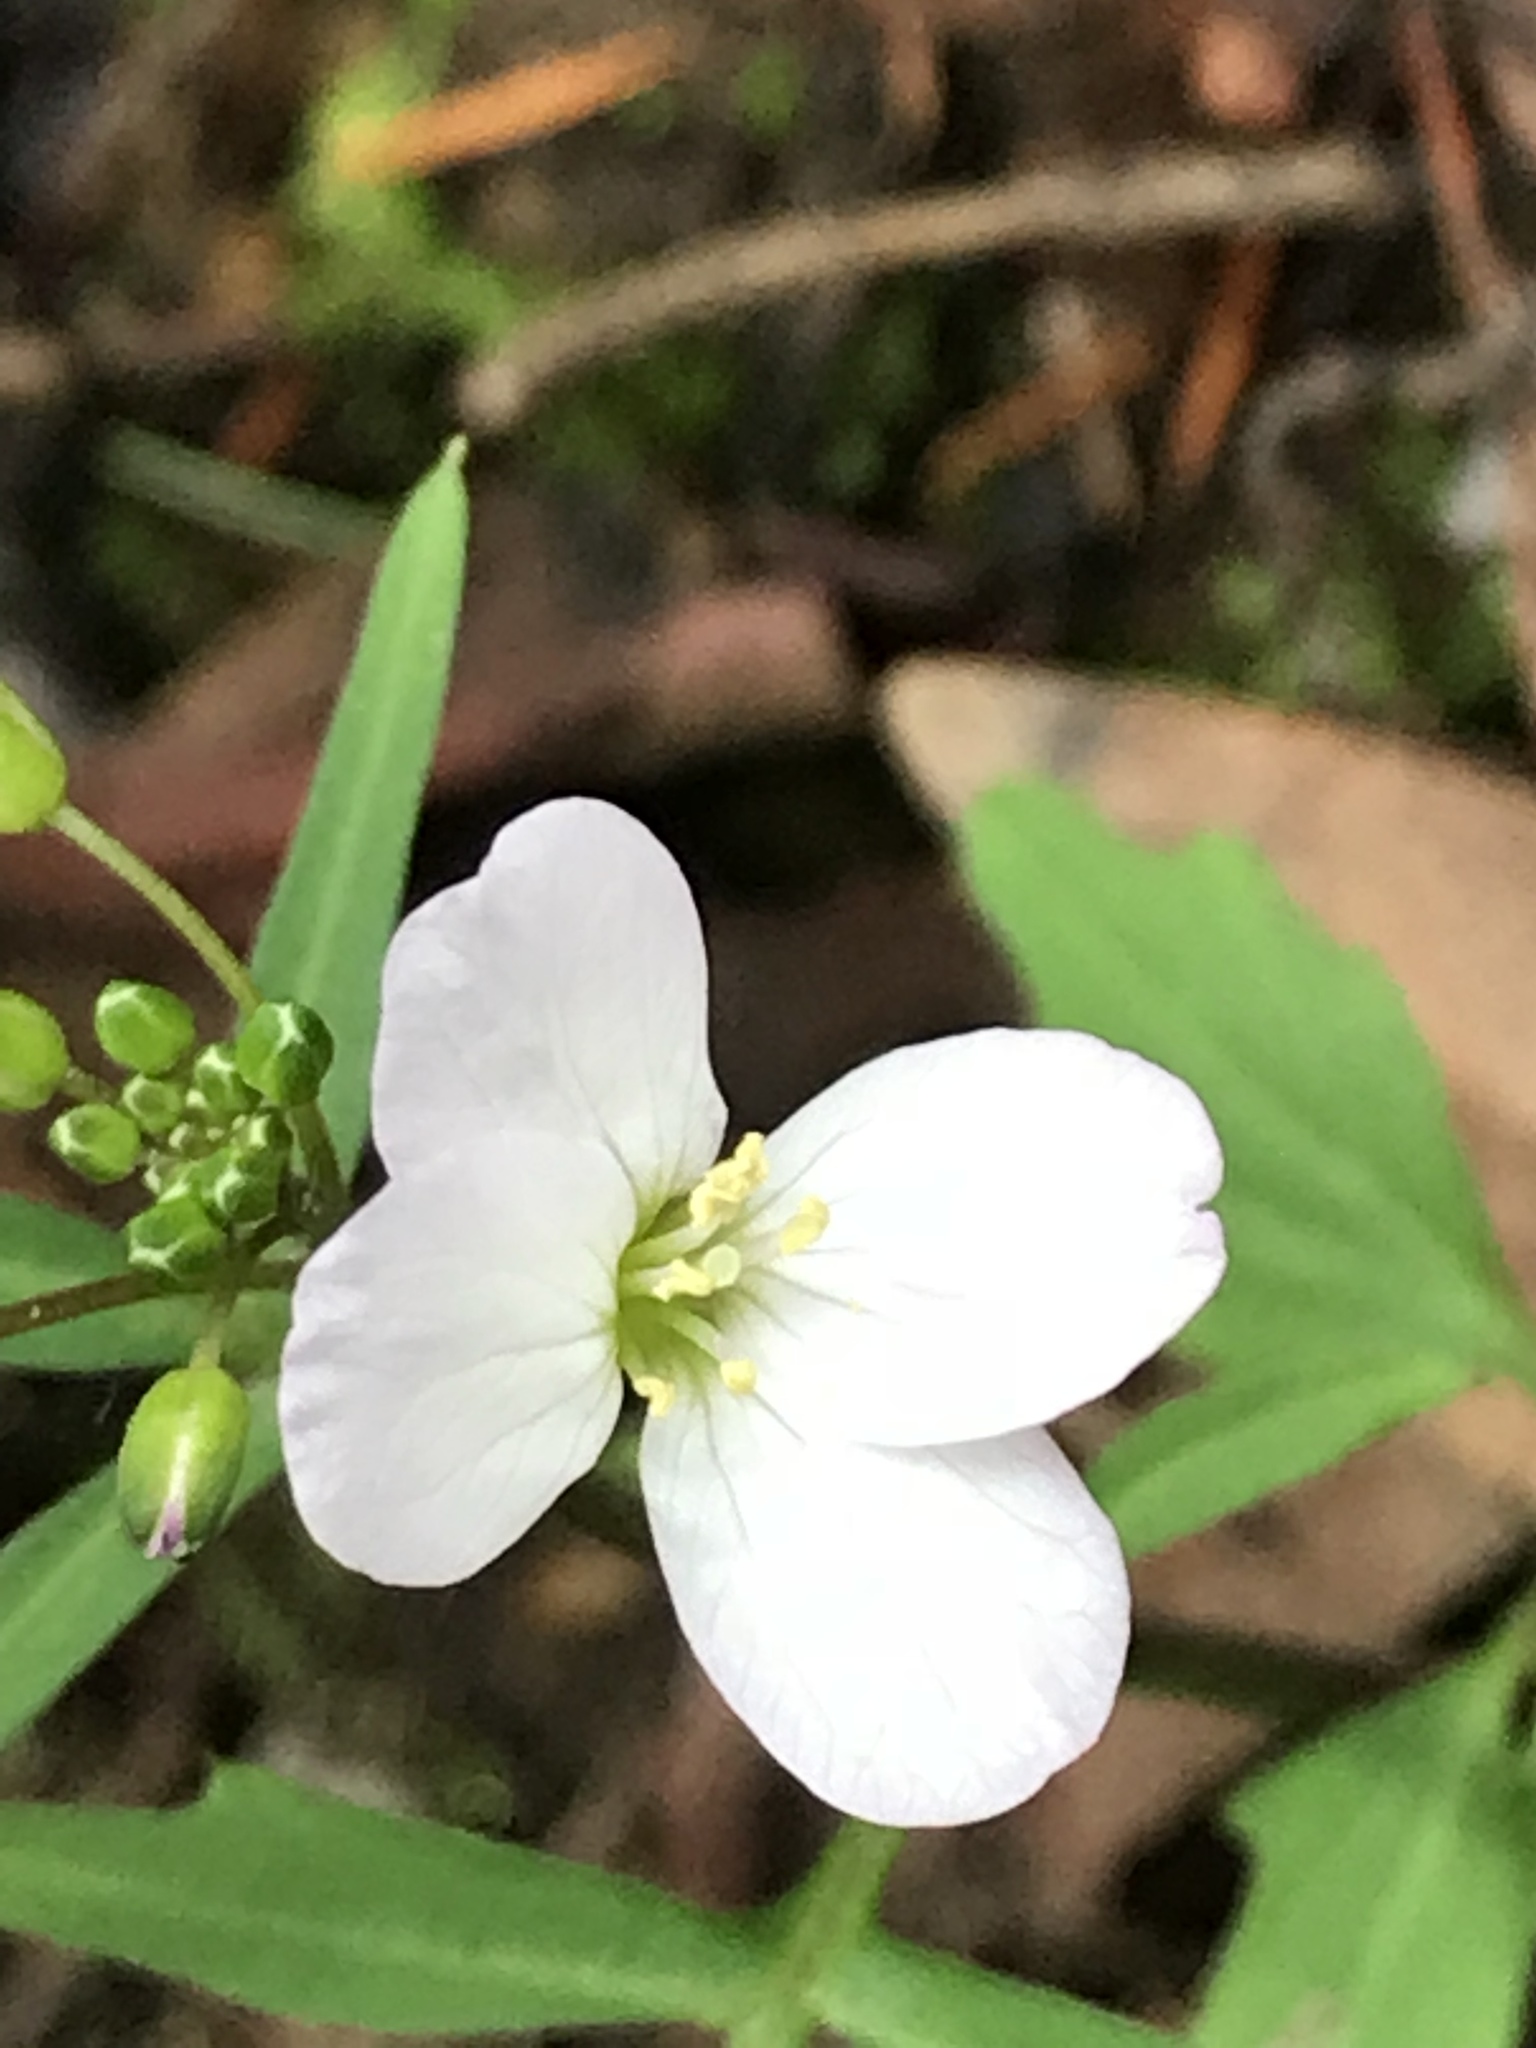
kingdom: Plantae
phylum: Tracheophyta
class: Magnoliopsida
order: Brassicales
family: Brassicaceae
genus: Cardamine
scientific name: Cardamine californica
